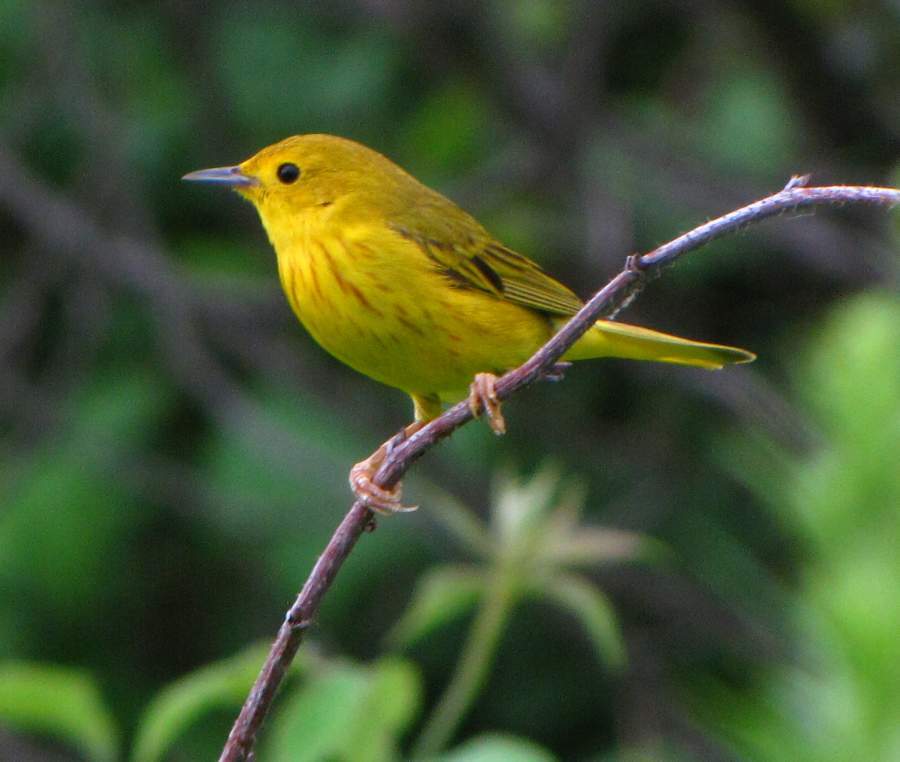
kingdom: Animalia
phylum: Chordata
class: Aves
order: Passeriformes
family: Parulidae
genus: Setophaga
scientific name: Setophaga petechia
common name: Yellow warbler
